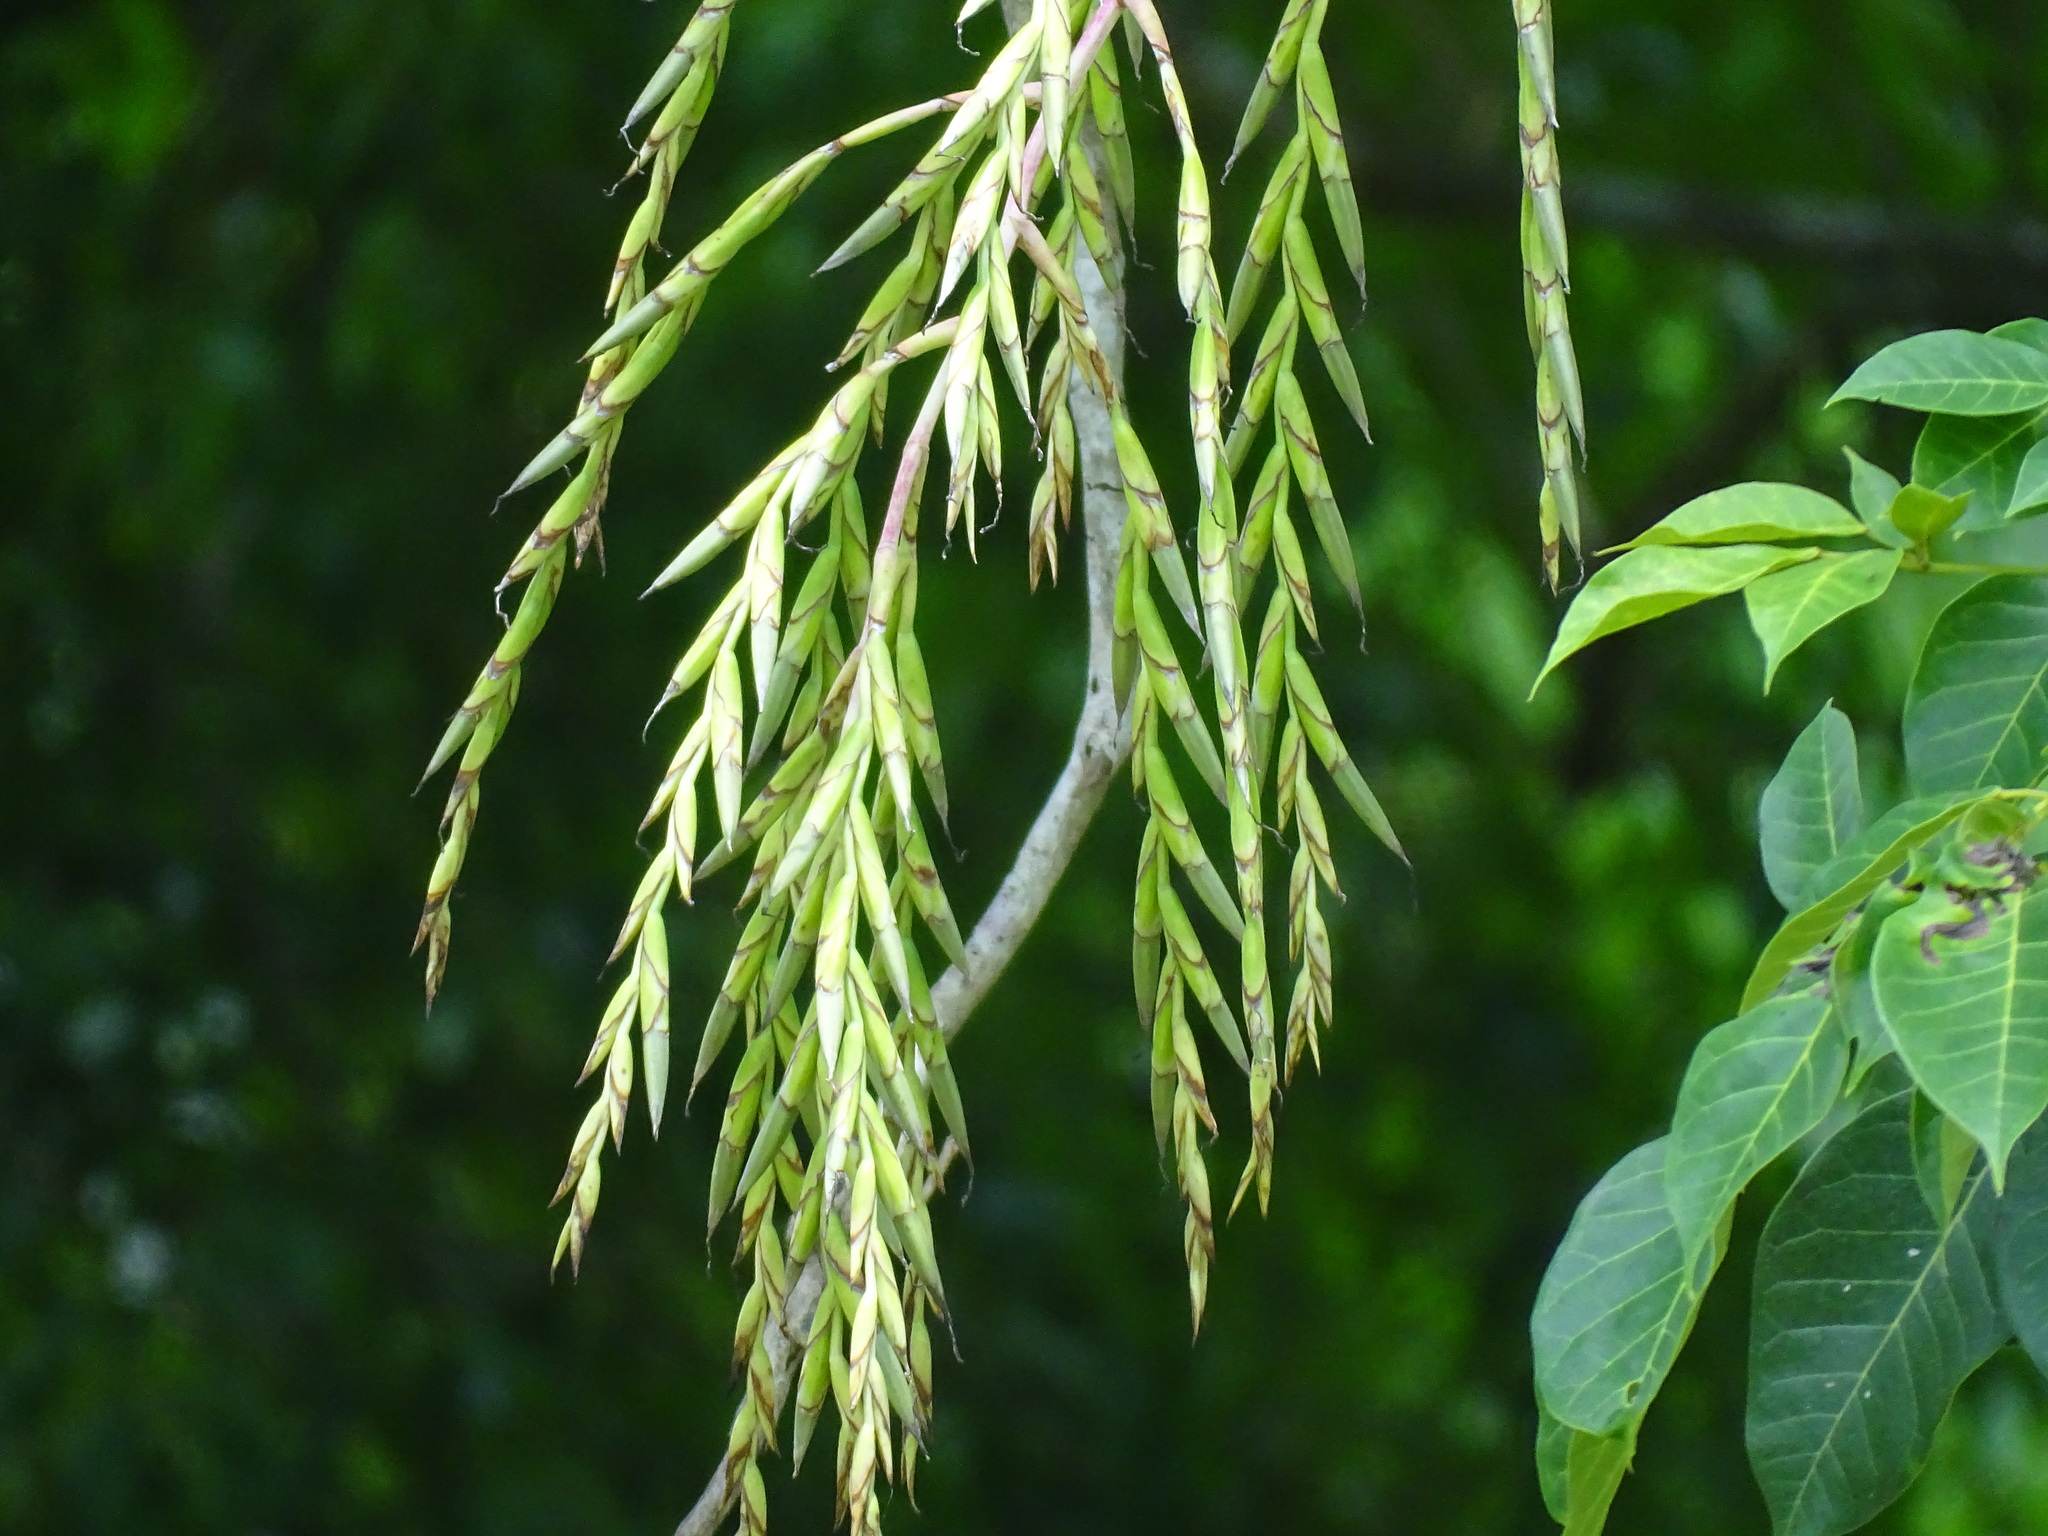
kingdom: Plantae
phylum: Tracheophyta
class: Liliopsida
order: Poales
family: Bromeliaceae
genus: Tillandsia
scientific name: Tillandsia dasyliriifolia
